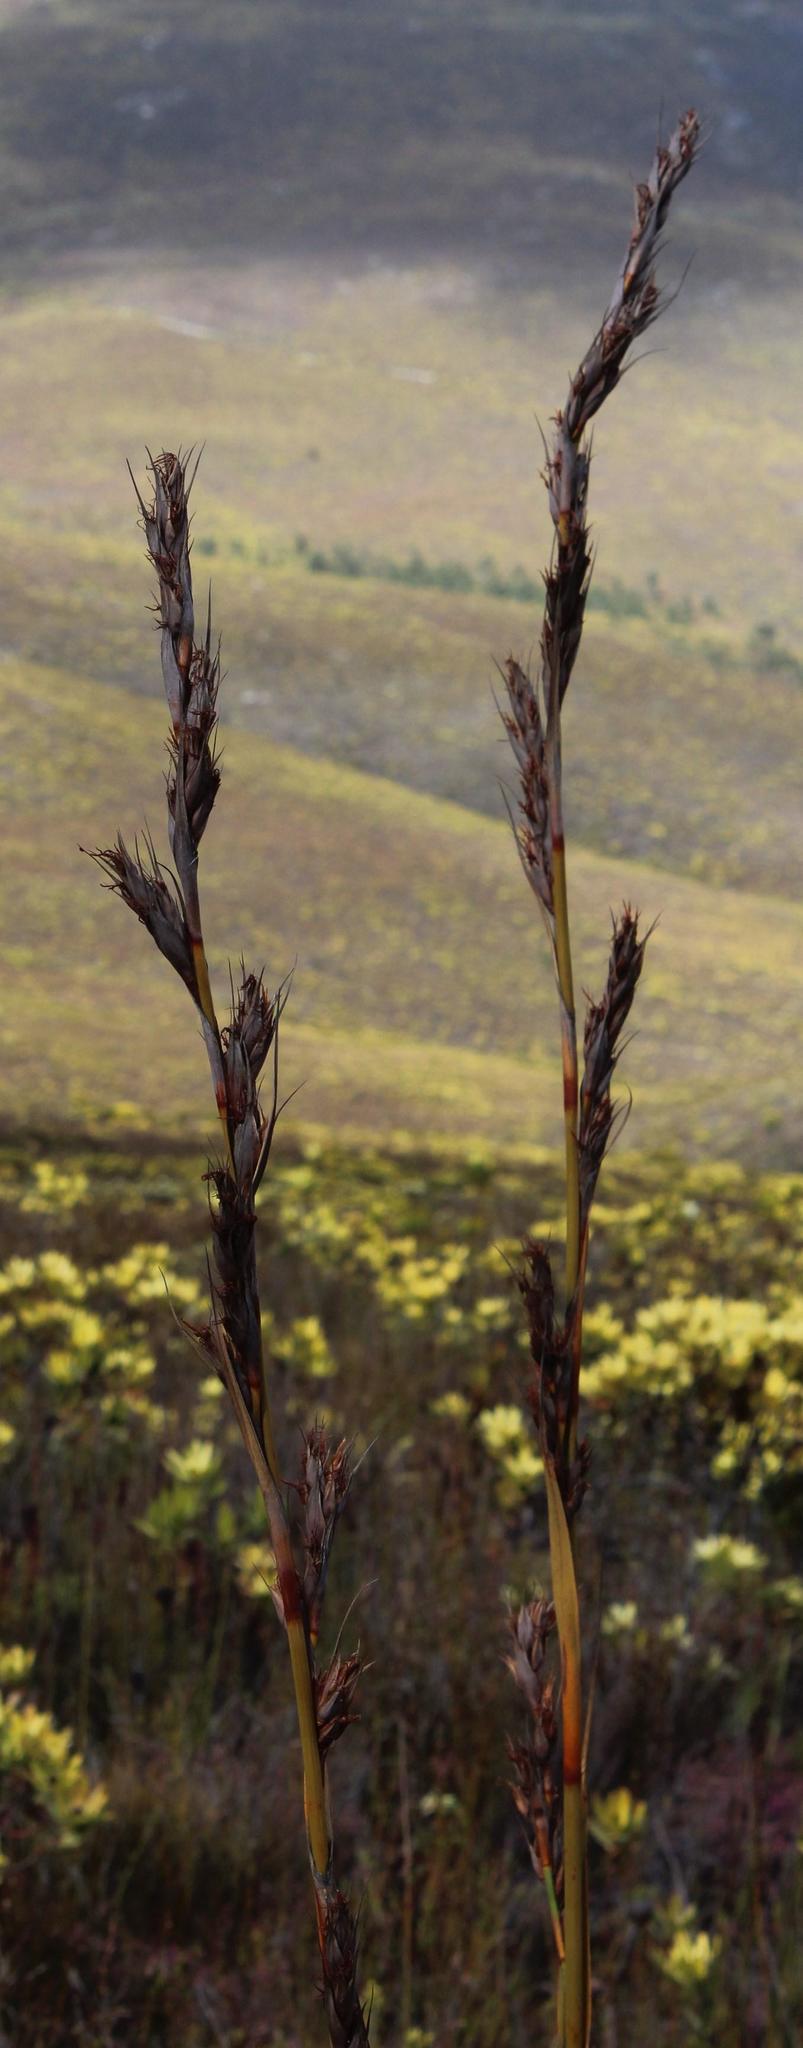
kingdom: Plantae
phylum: Tracheophyta
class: Liliopsida
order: Poales
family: Cyperaceae
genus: Tetraria
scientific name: Tetraria thermalis
